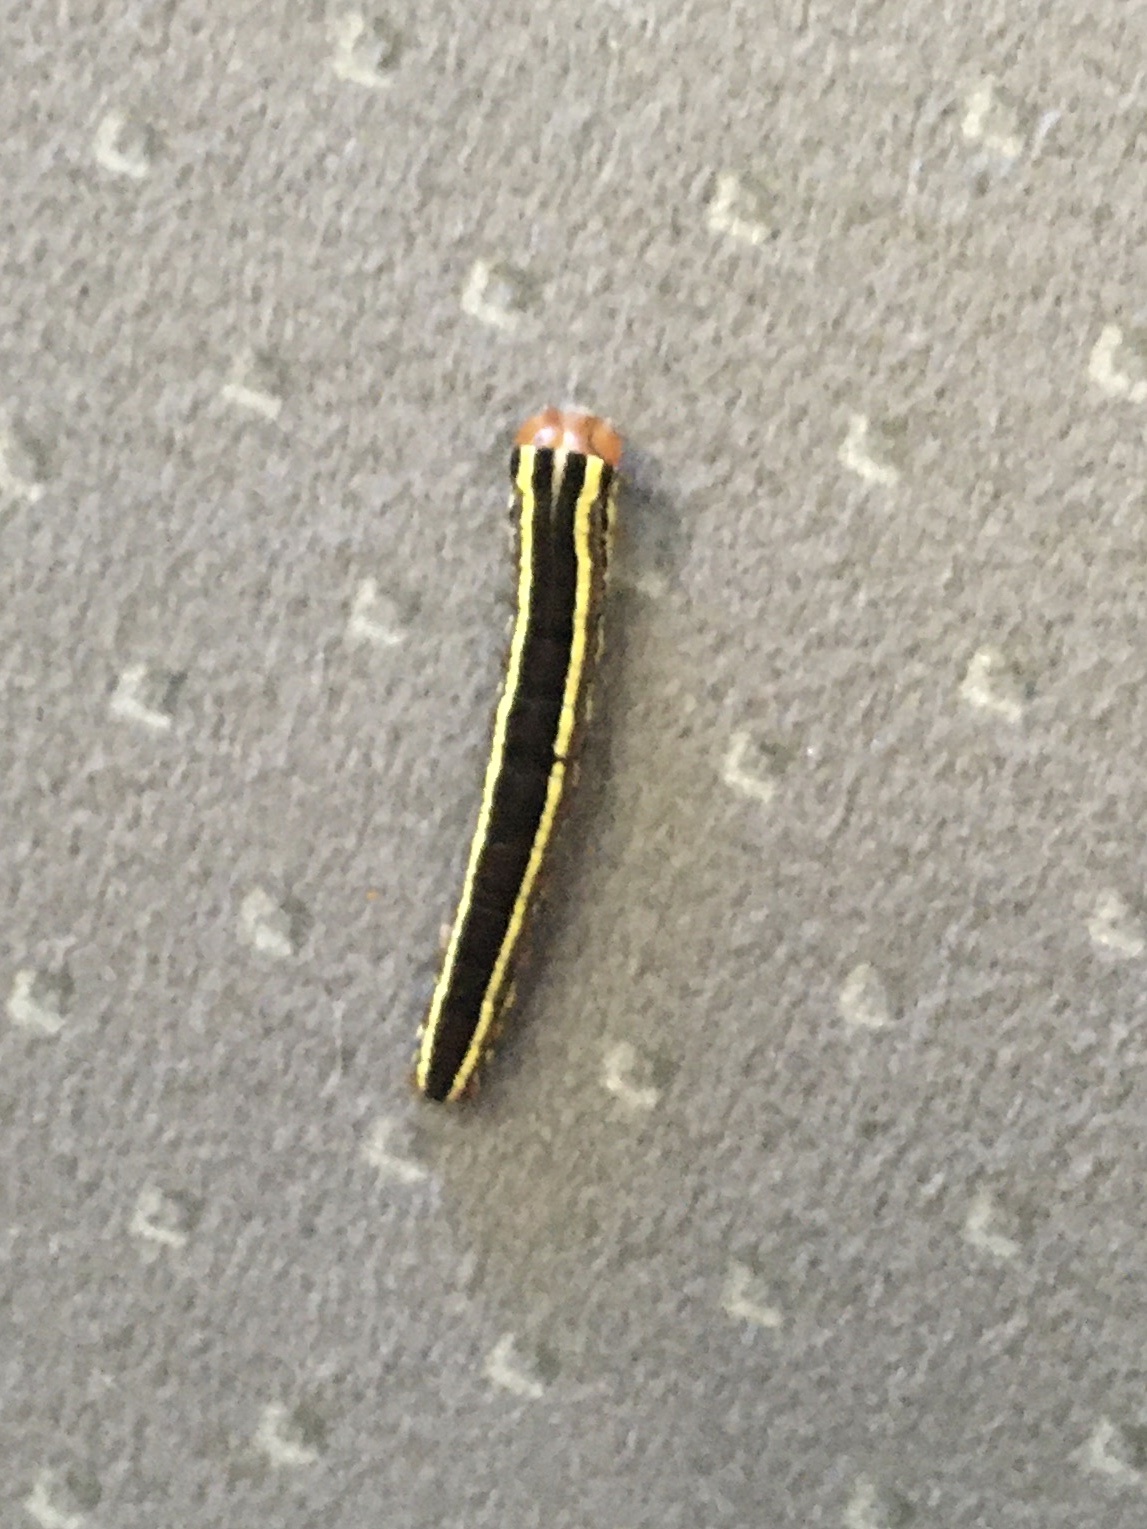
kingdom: Animalia
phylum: Arthropoda
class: Insecta
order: Lepidoptera
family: Noctuidae
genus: Trichordestra
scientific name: Trichordestra legitima
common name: Striped garden caterpillar
